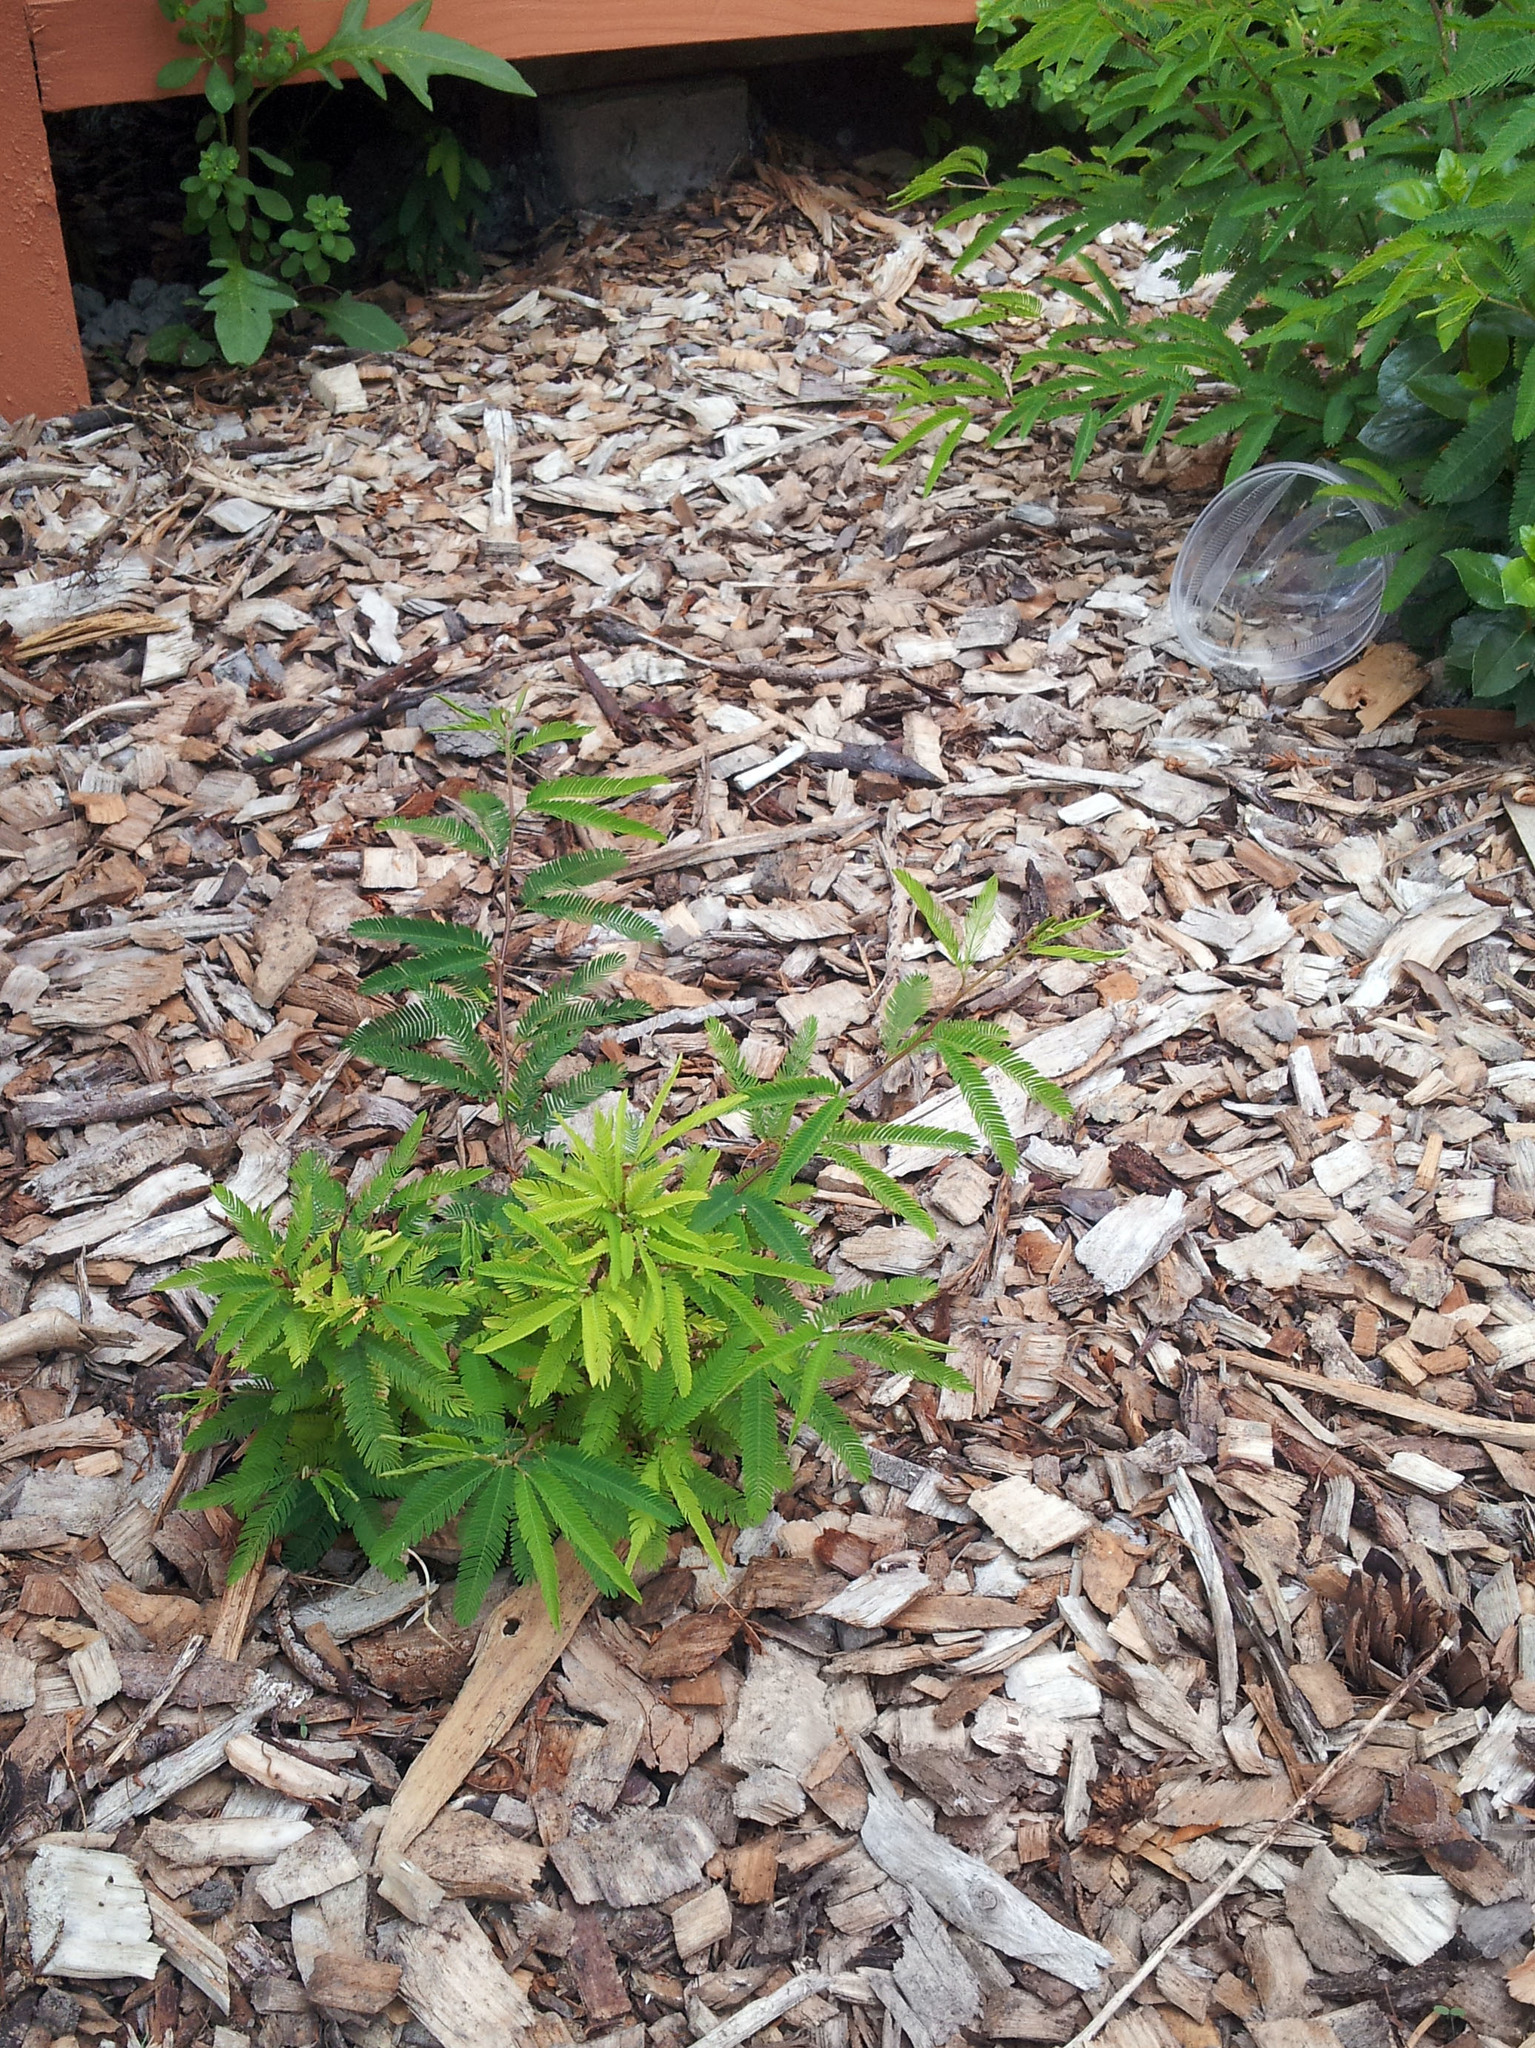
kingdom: Plantae
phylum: Tracheophyta
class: Magnoliopsida
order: Fabales
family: Fabaceae
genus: Calliandra
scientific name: Calliandra selloi
